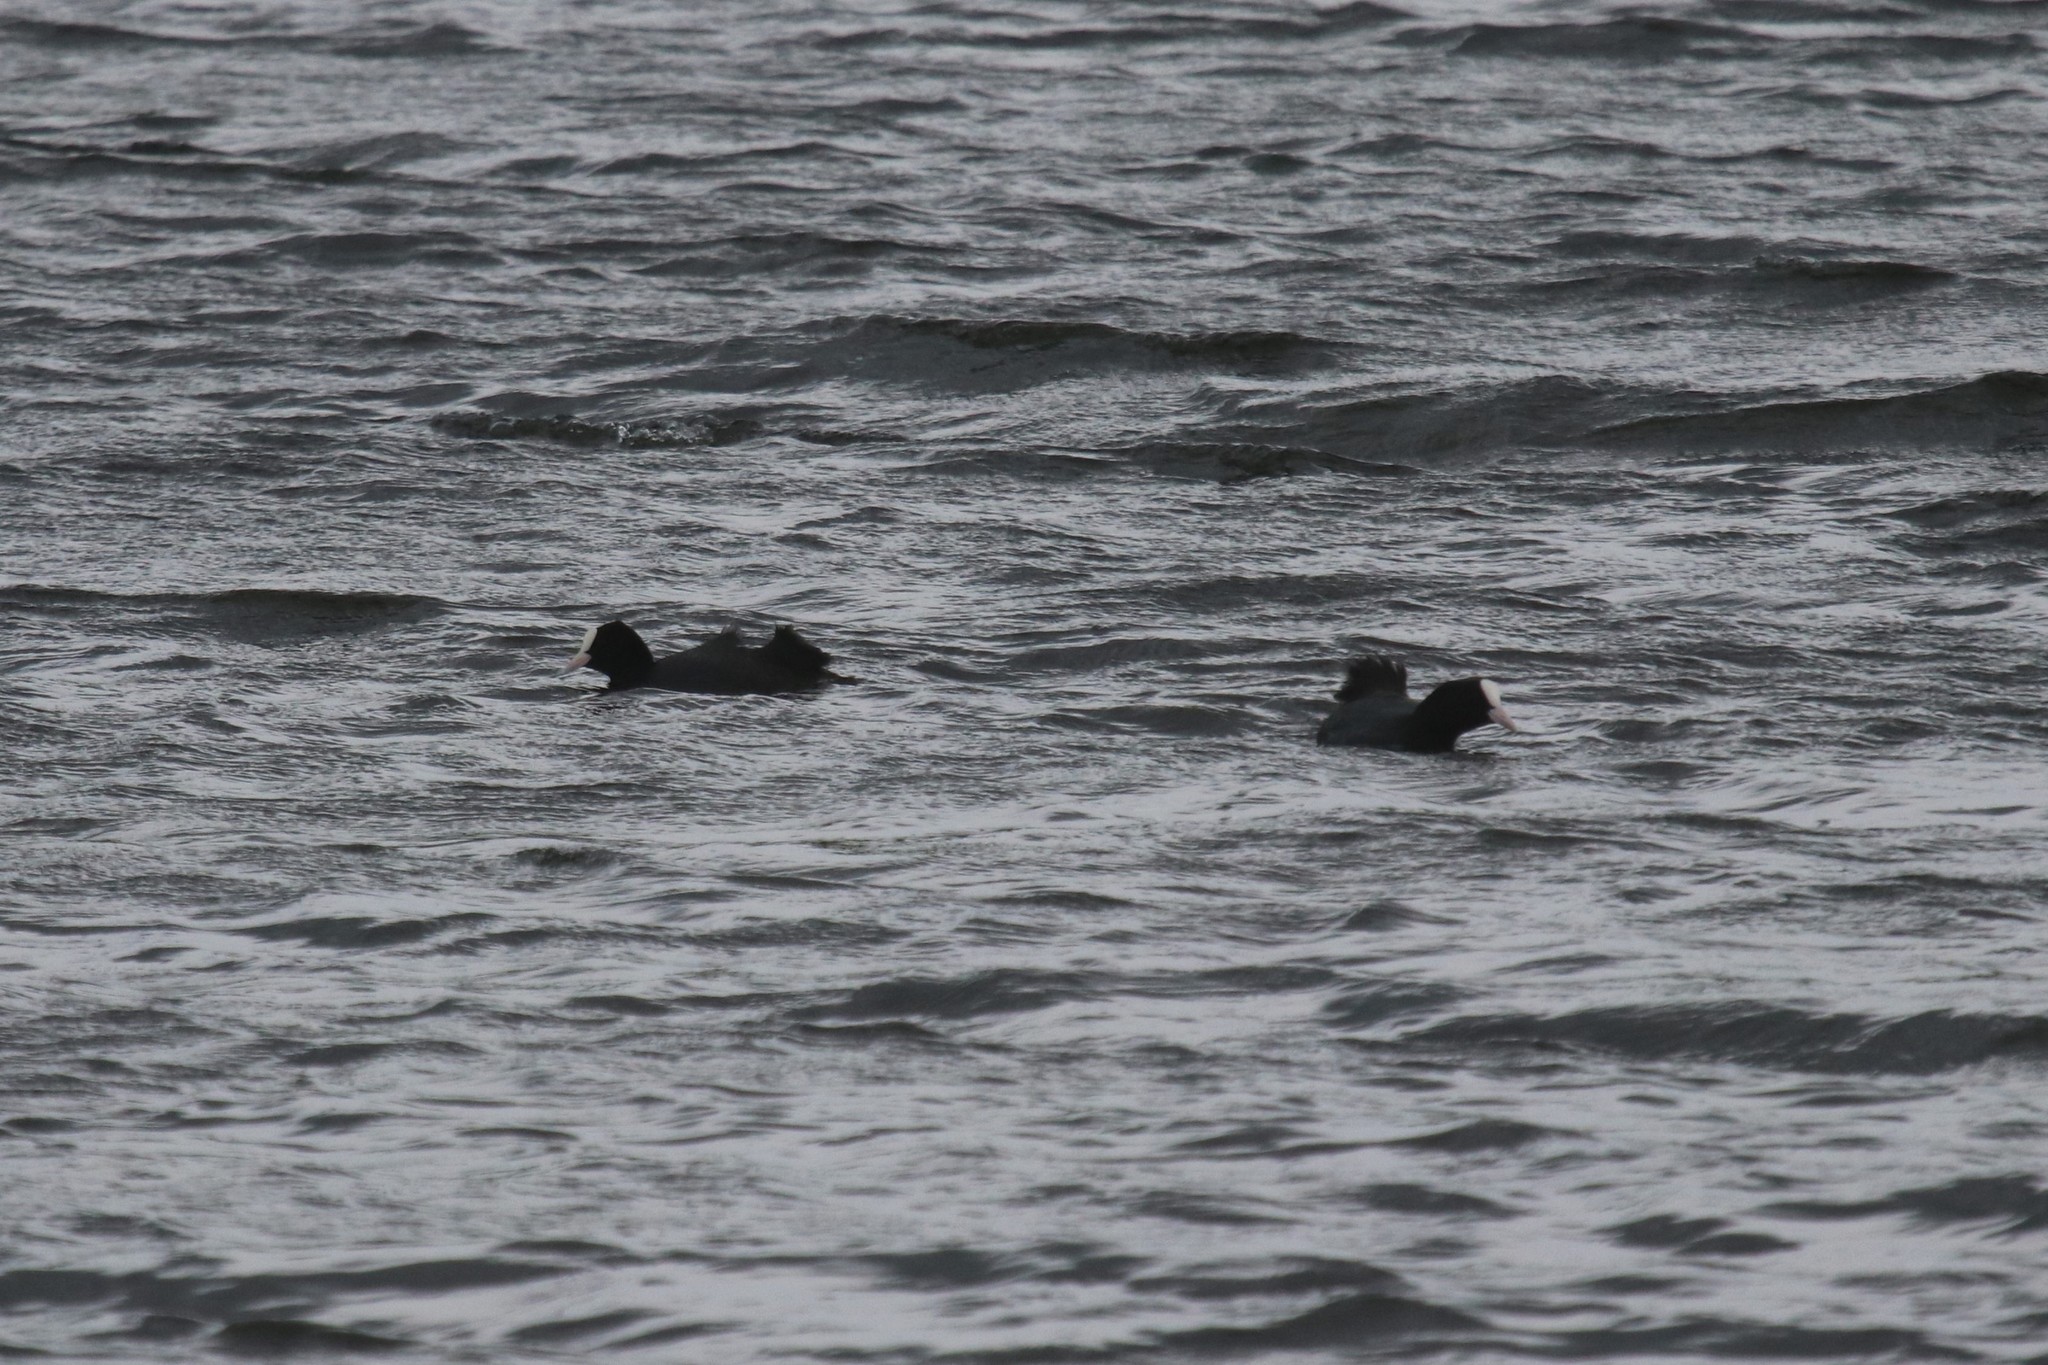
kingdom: Animalia
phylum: Chordata
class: Aves
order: Gruiformes
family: Rallidae
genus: Fulica
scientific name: Fulica atra
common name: Eurasian coot
